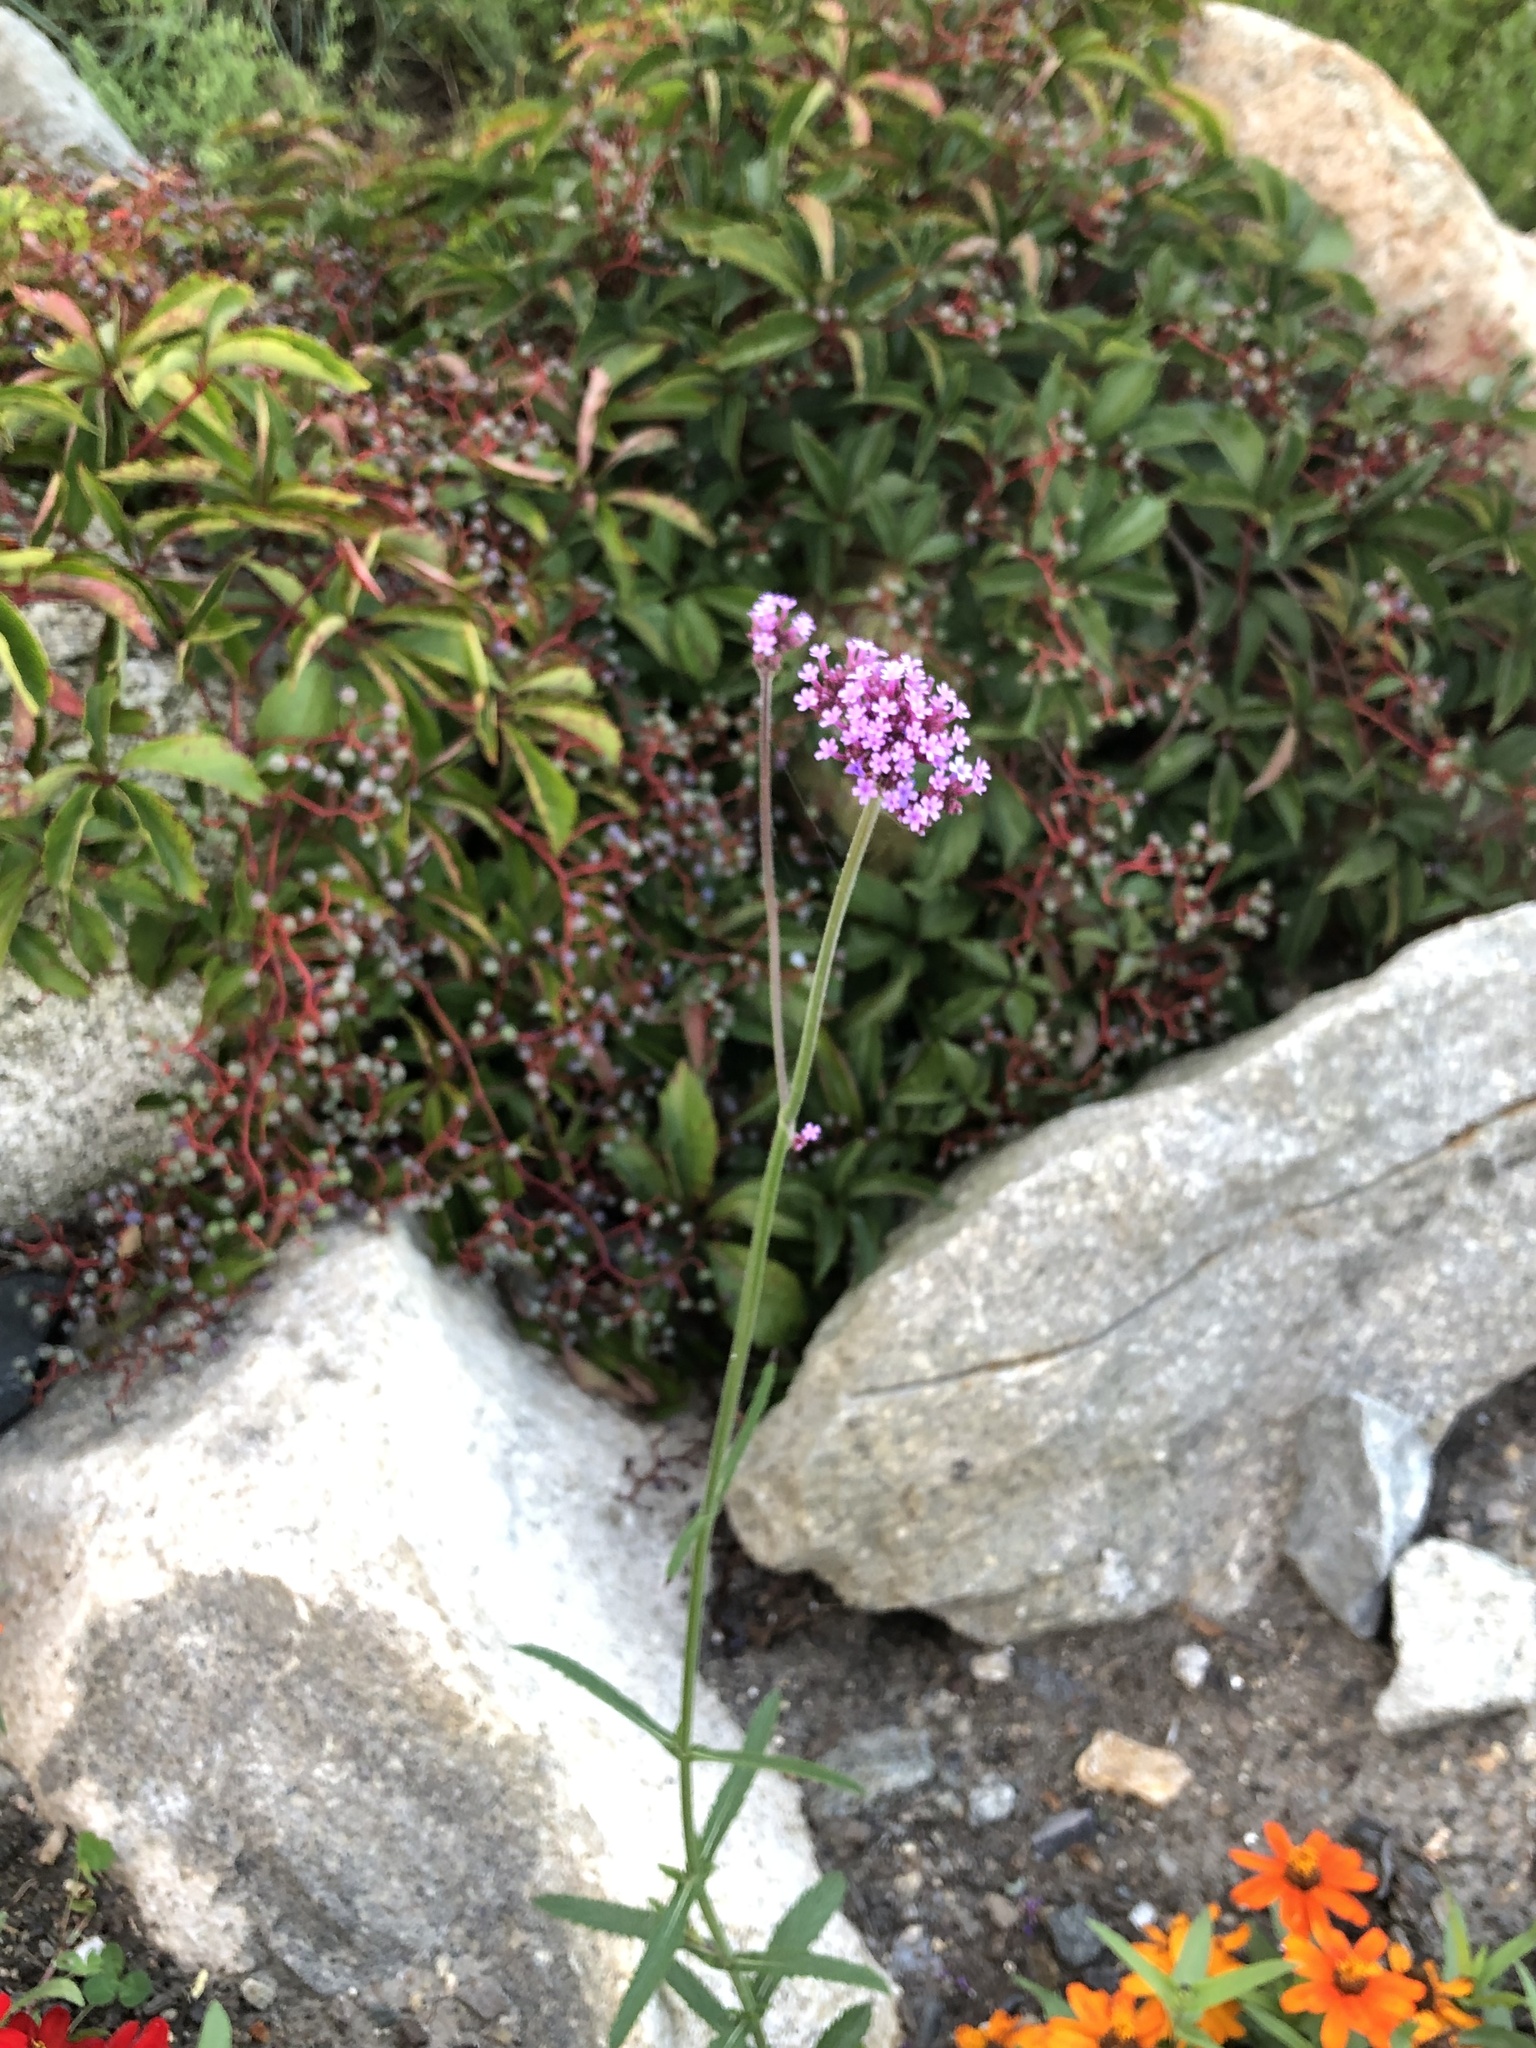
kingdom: Plantae
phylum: Tracheophyta
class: Magnoliopsida
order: Lamiales
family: Verbenaceae
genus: Verbena
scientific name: Verbena bonariensis
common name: Purpletop vervain
